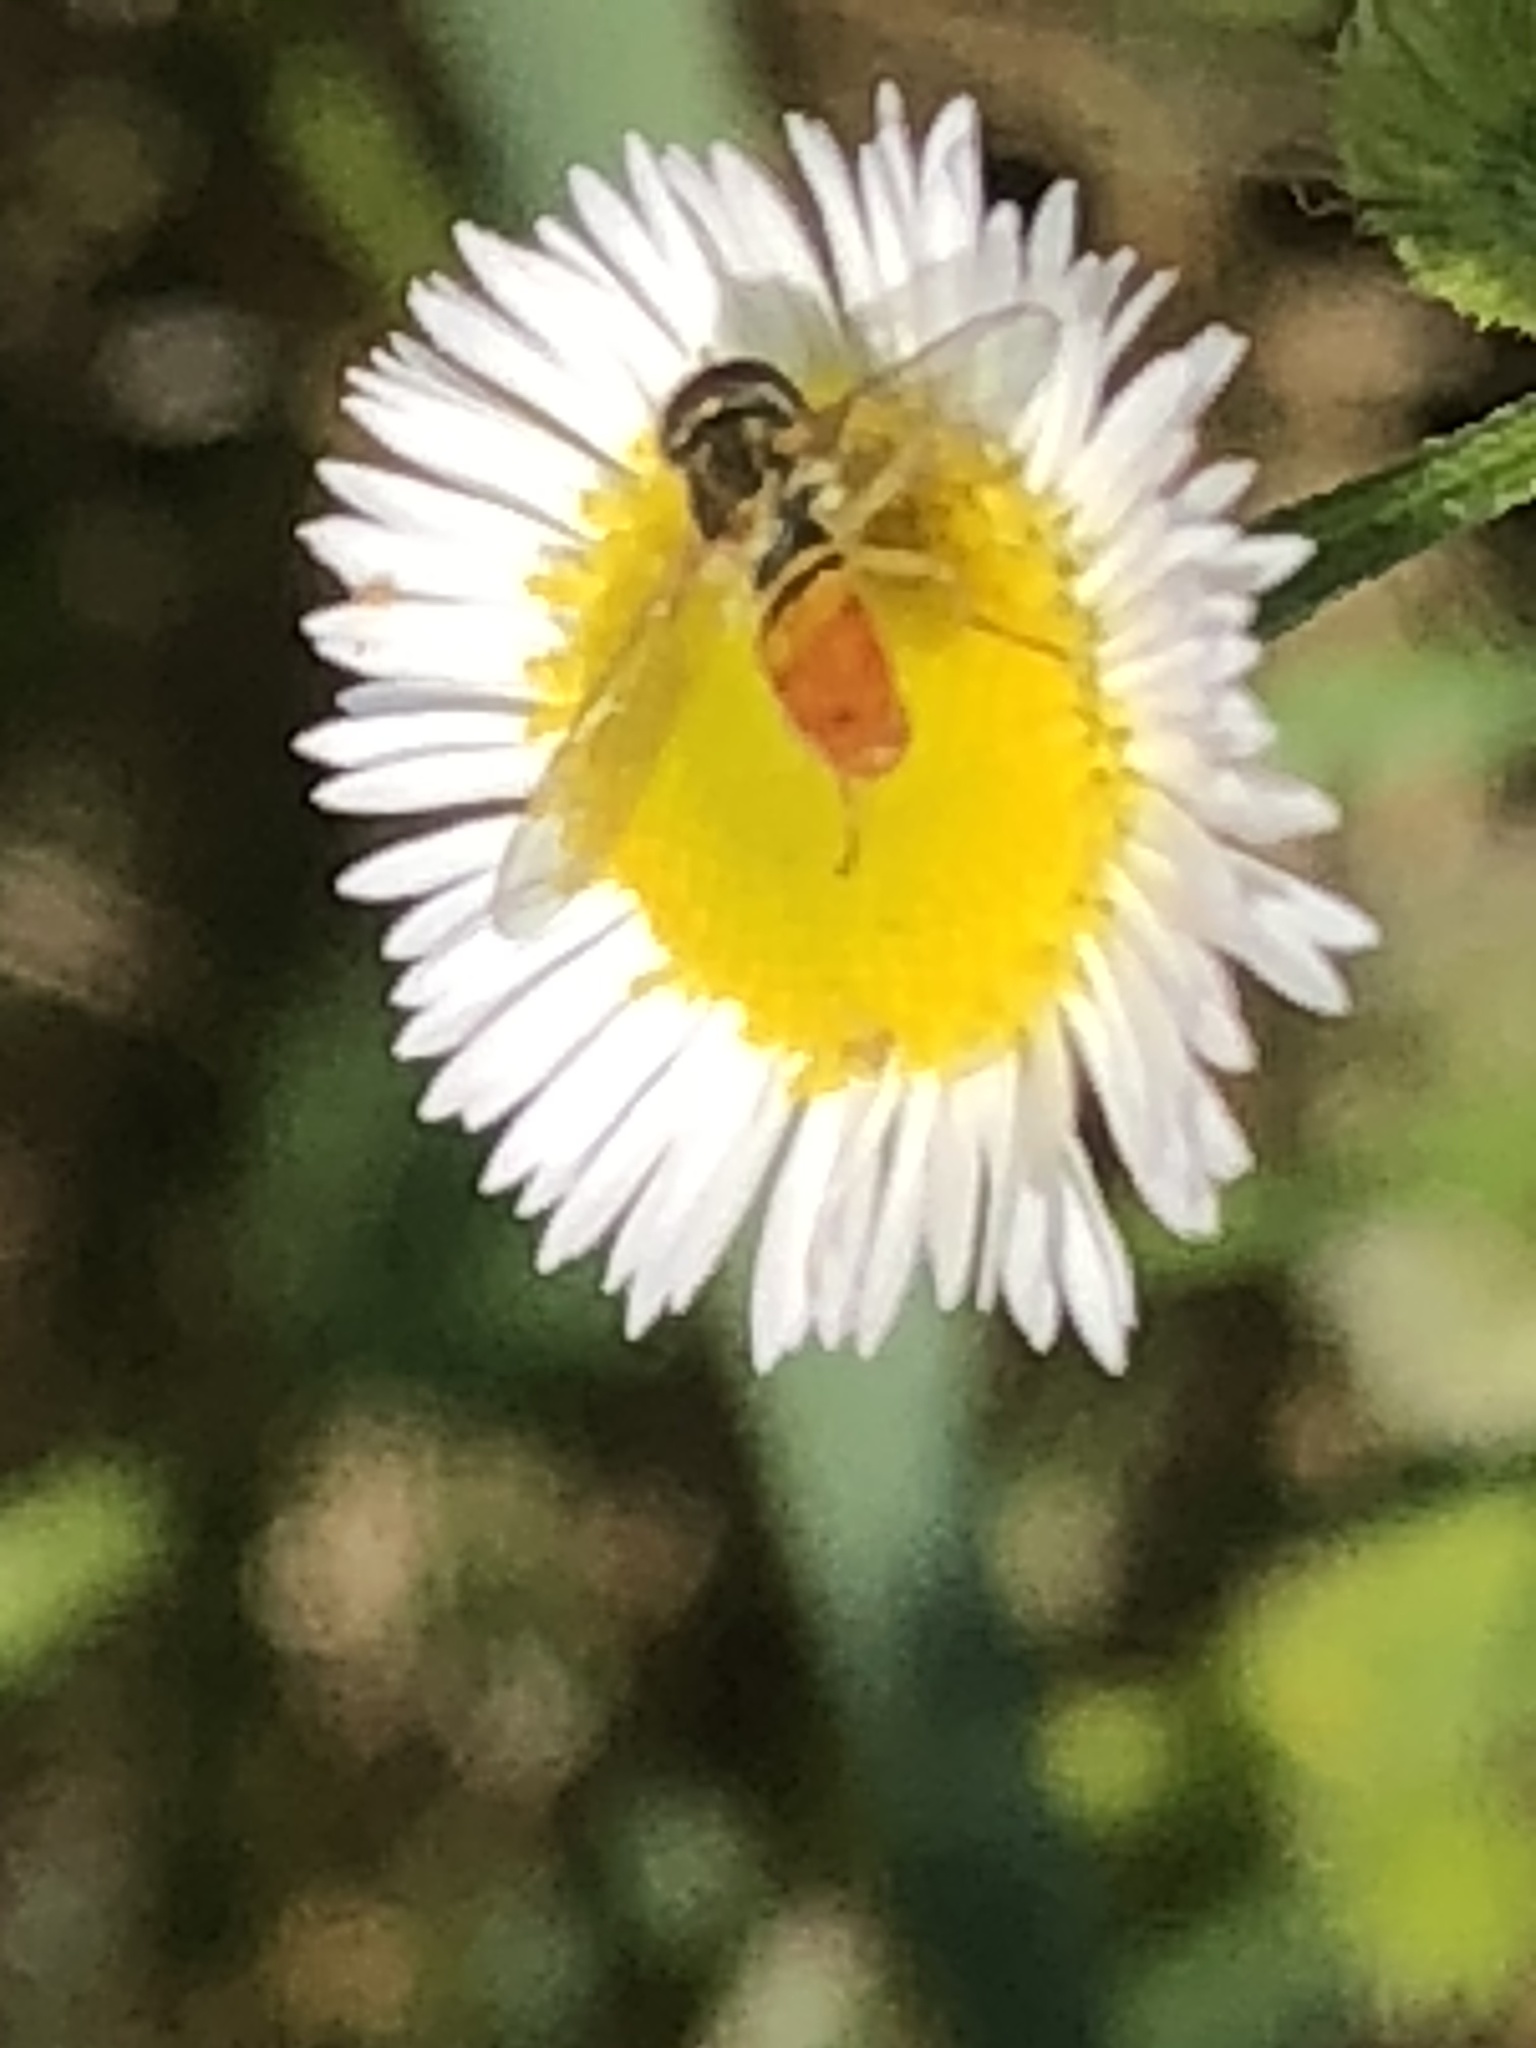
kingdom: Animalia
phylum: Arthropoda
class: Insecta
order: Diptera
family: Syrphidae
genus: Toxomerus
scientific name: Toxomerus marginatus
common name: Syrphid fly
